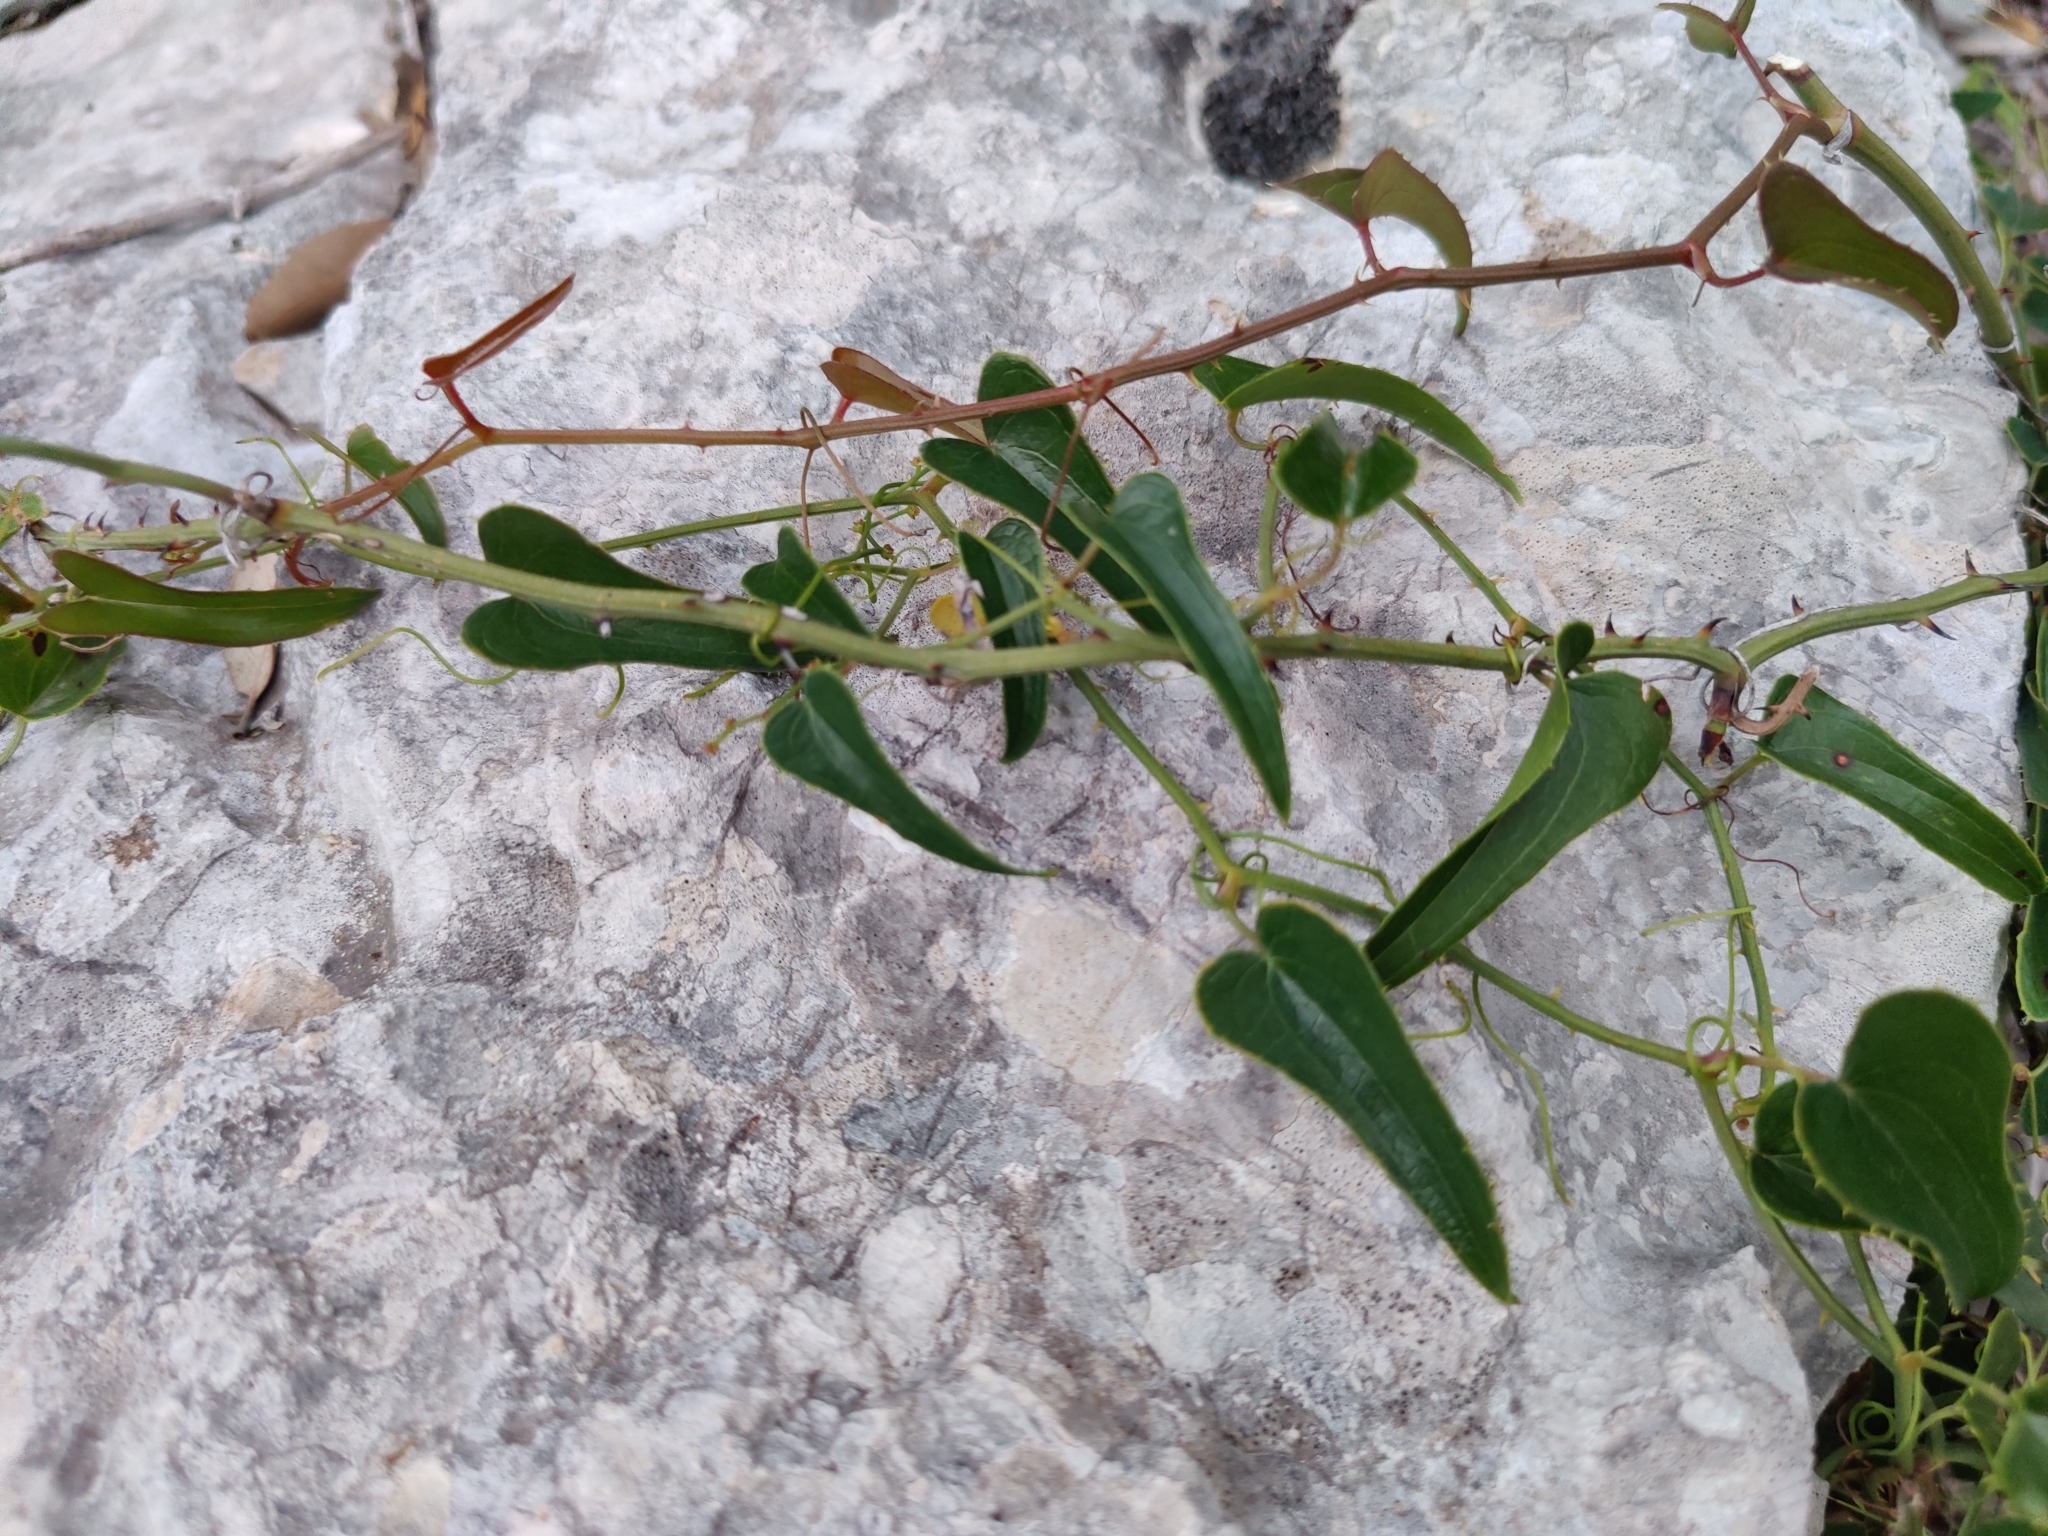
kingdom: Plantae
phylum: Tracheophyta
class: Liliopsida
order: Liliales
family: Smilacaceae
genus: Smilax
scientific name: Smilax aspera
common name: Common smilax
